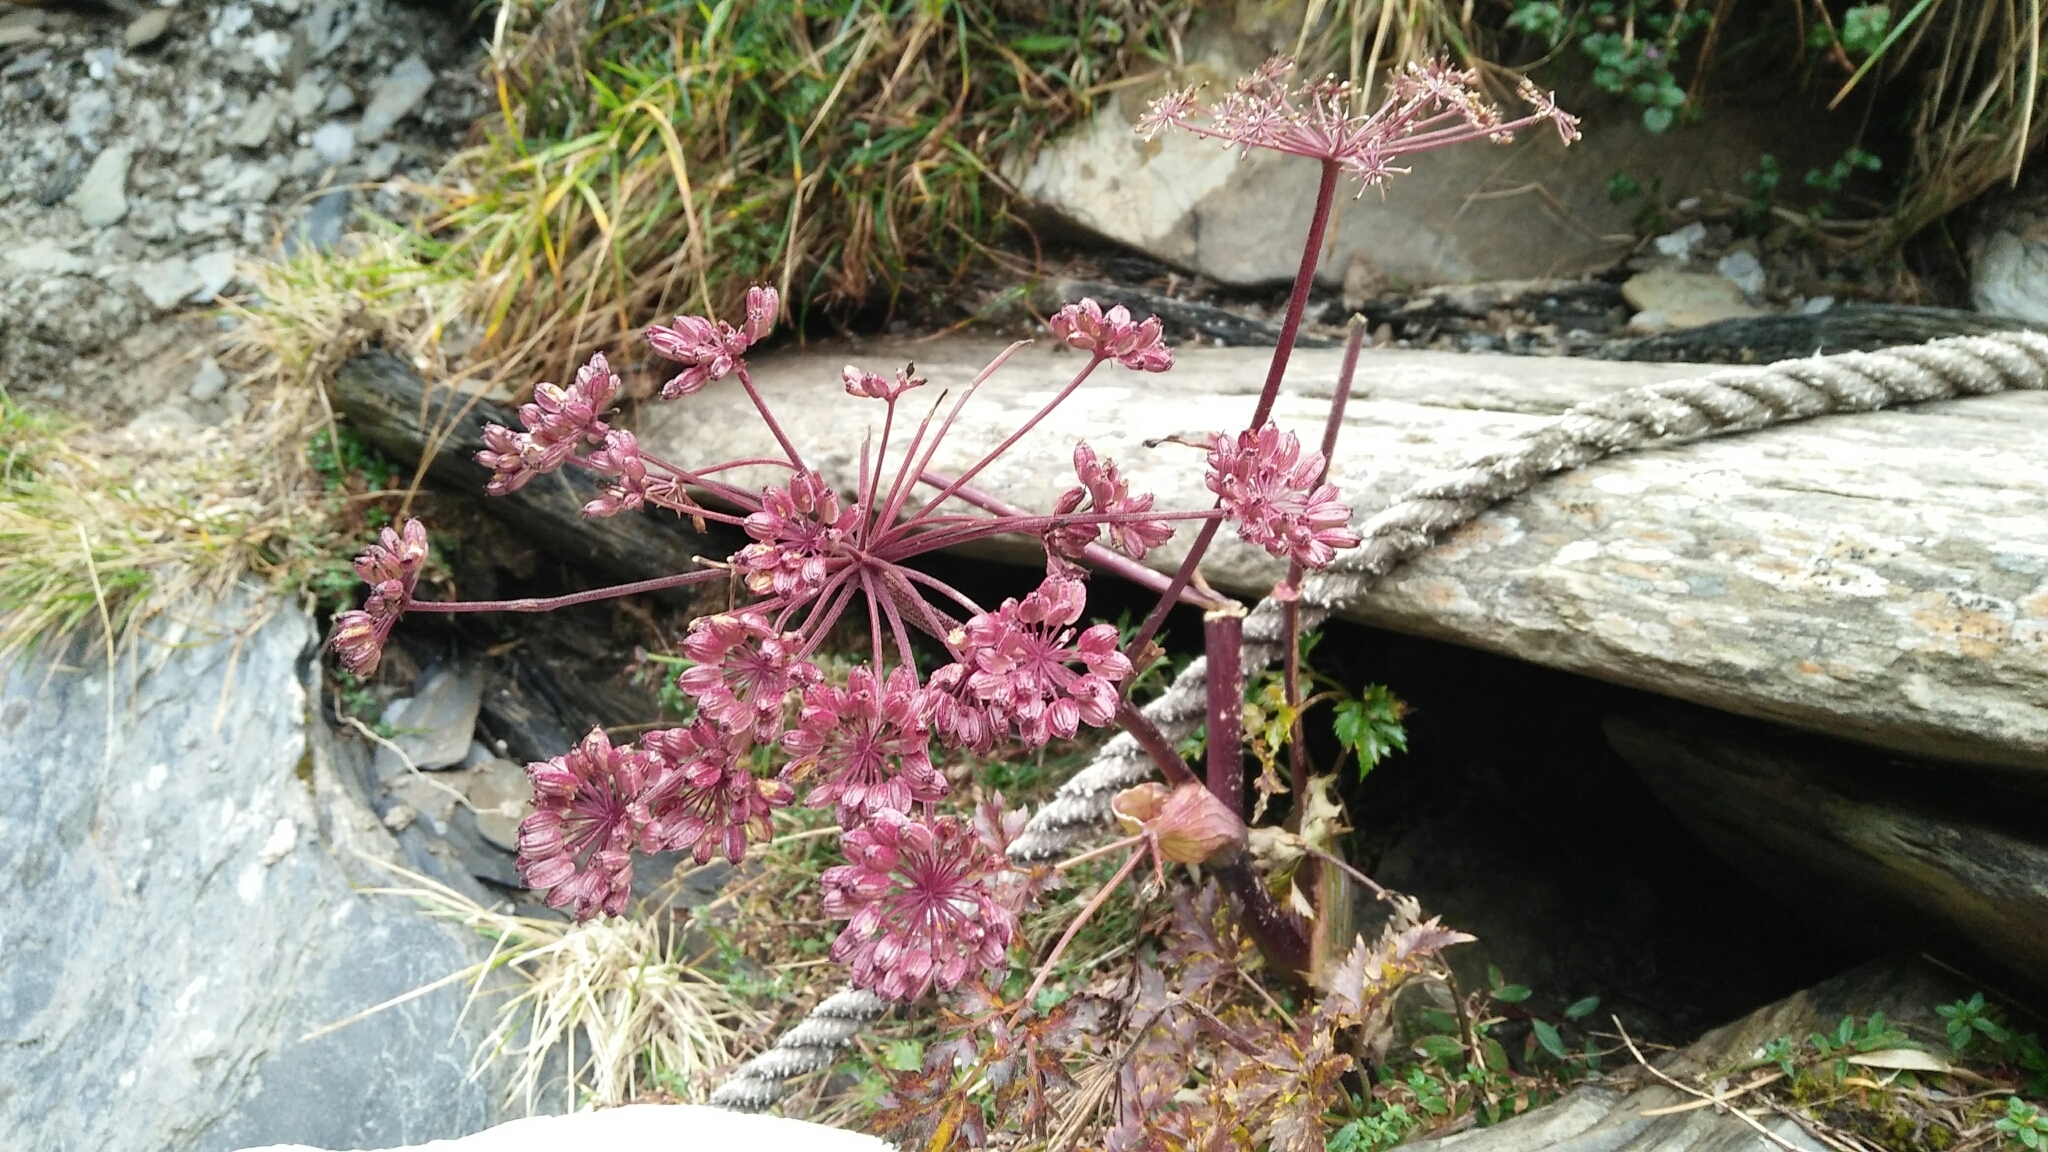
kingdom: Plantae
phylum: Tracheophyta
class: Magnoliopsida
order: Apiales
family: Apiaceae
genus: Angelica
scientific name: Angelica morii
